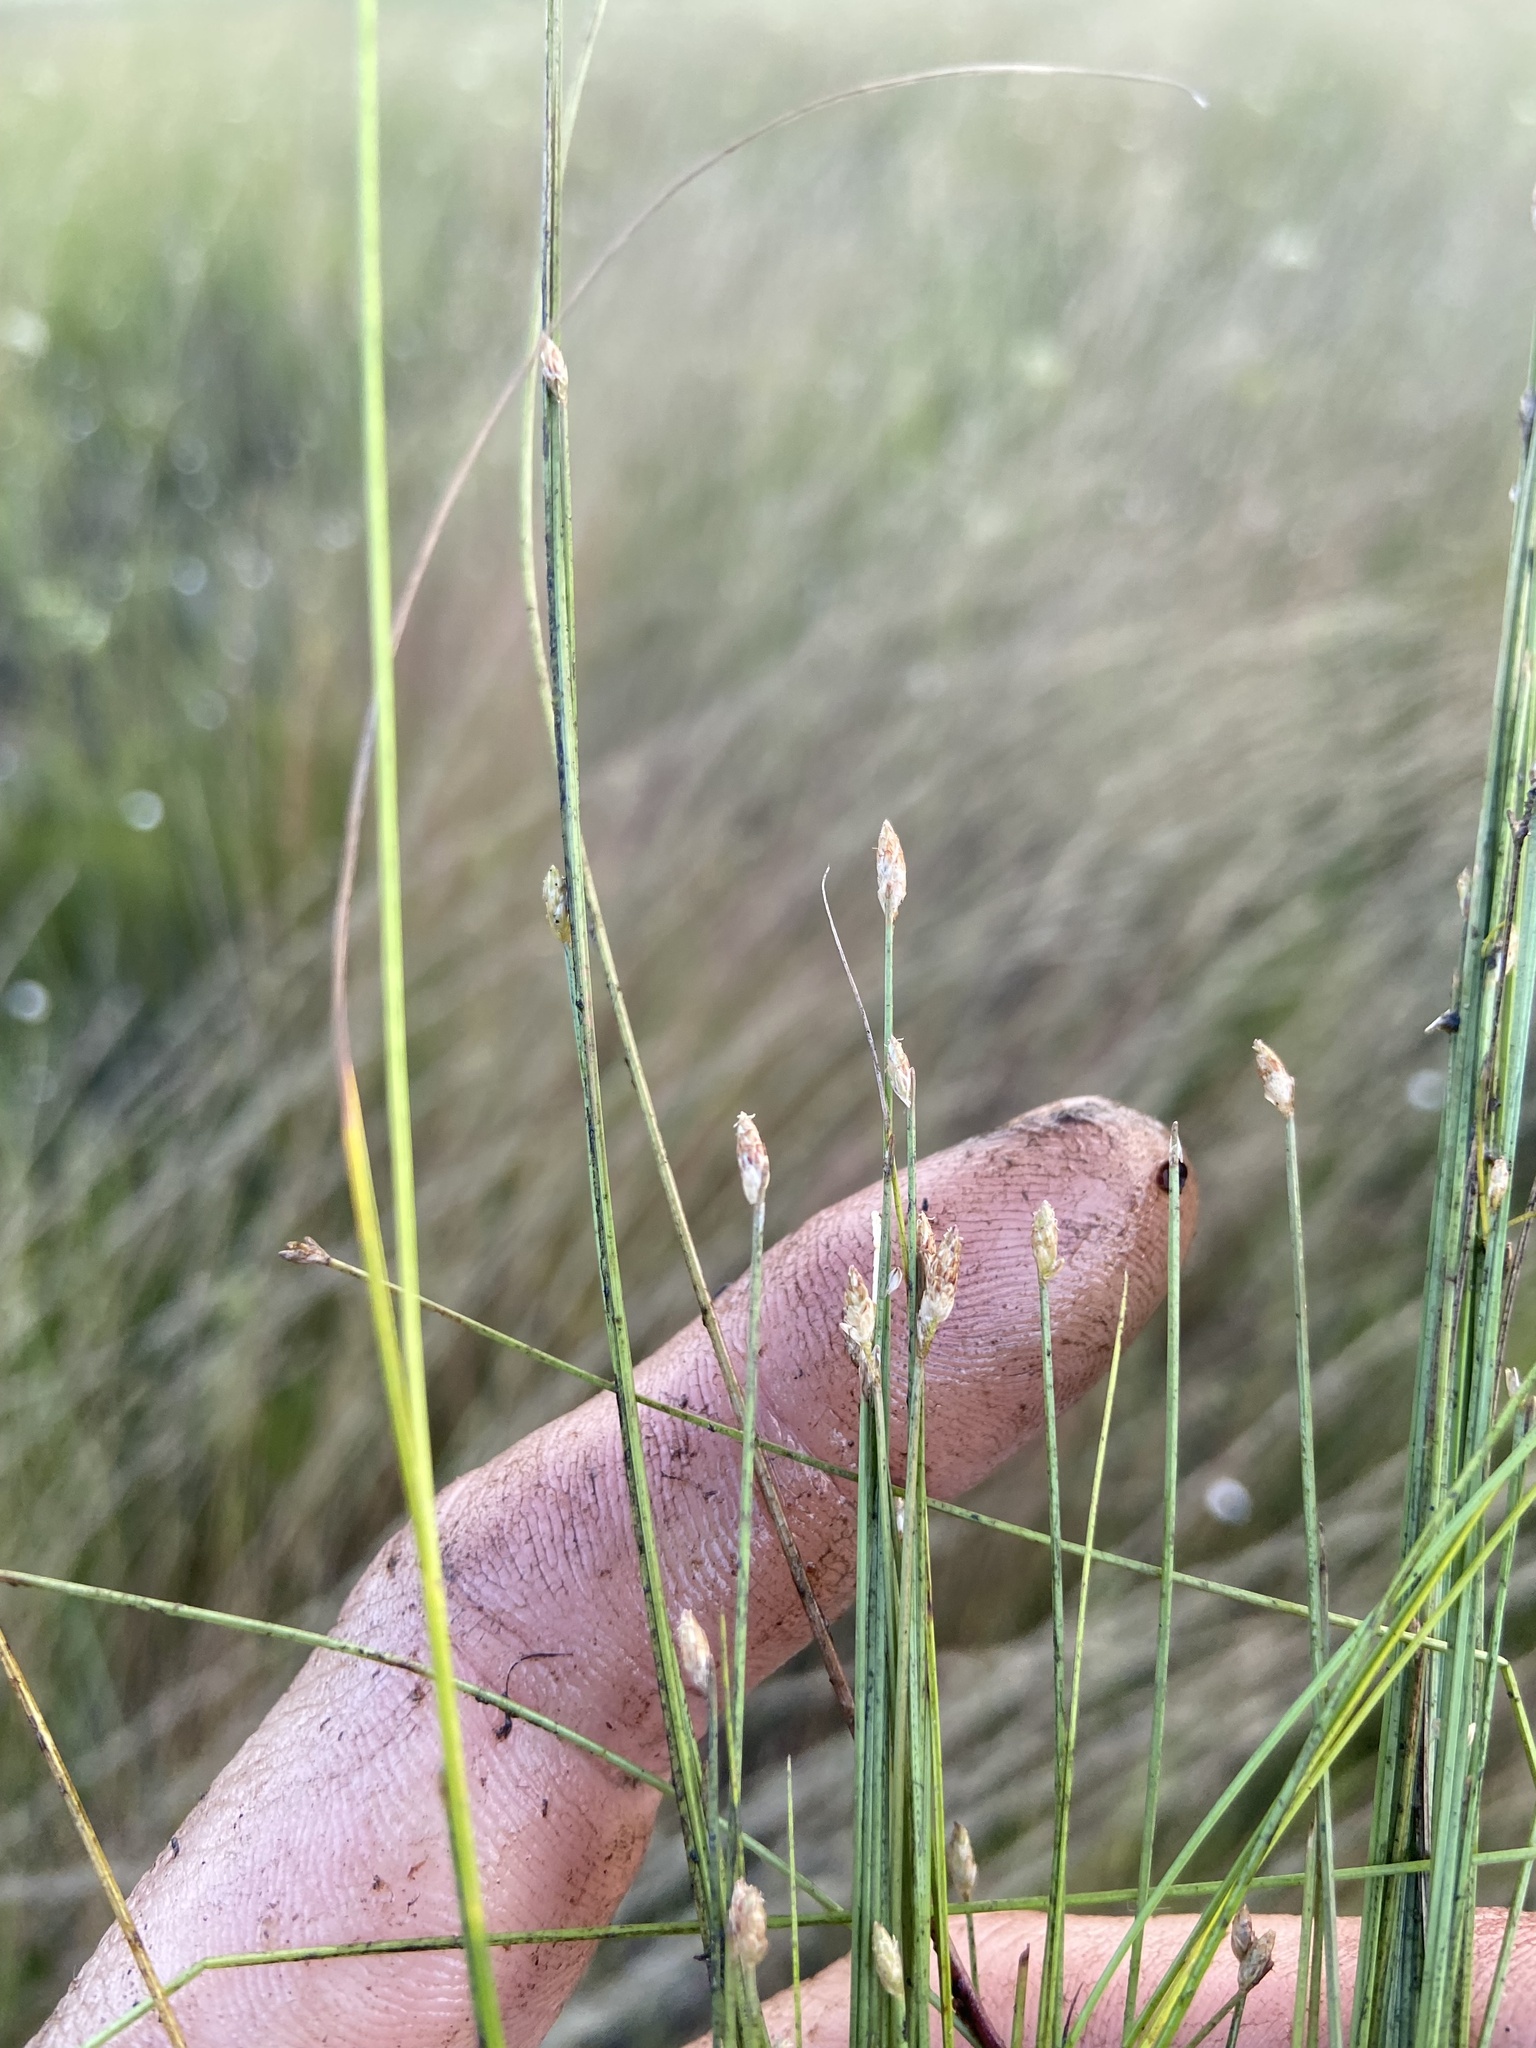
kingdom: Plantae
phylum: Tracheophyta
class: Liliopsida
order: Poales
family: Cyperaceae
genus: Eleocharis
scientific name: Eleocharis microcarpa
